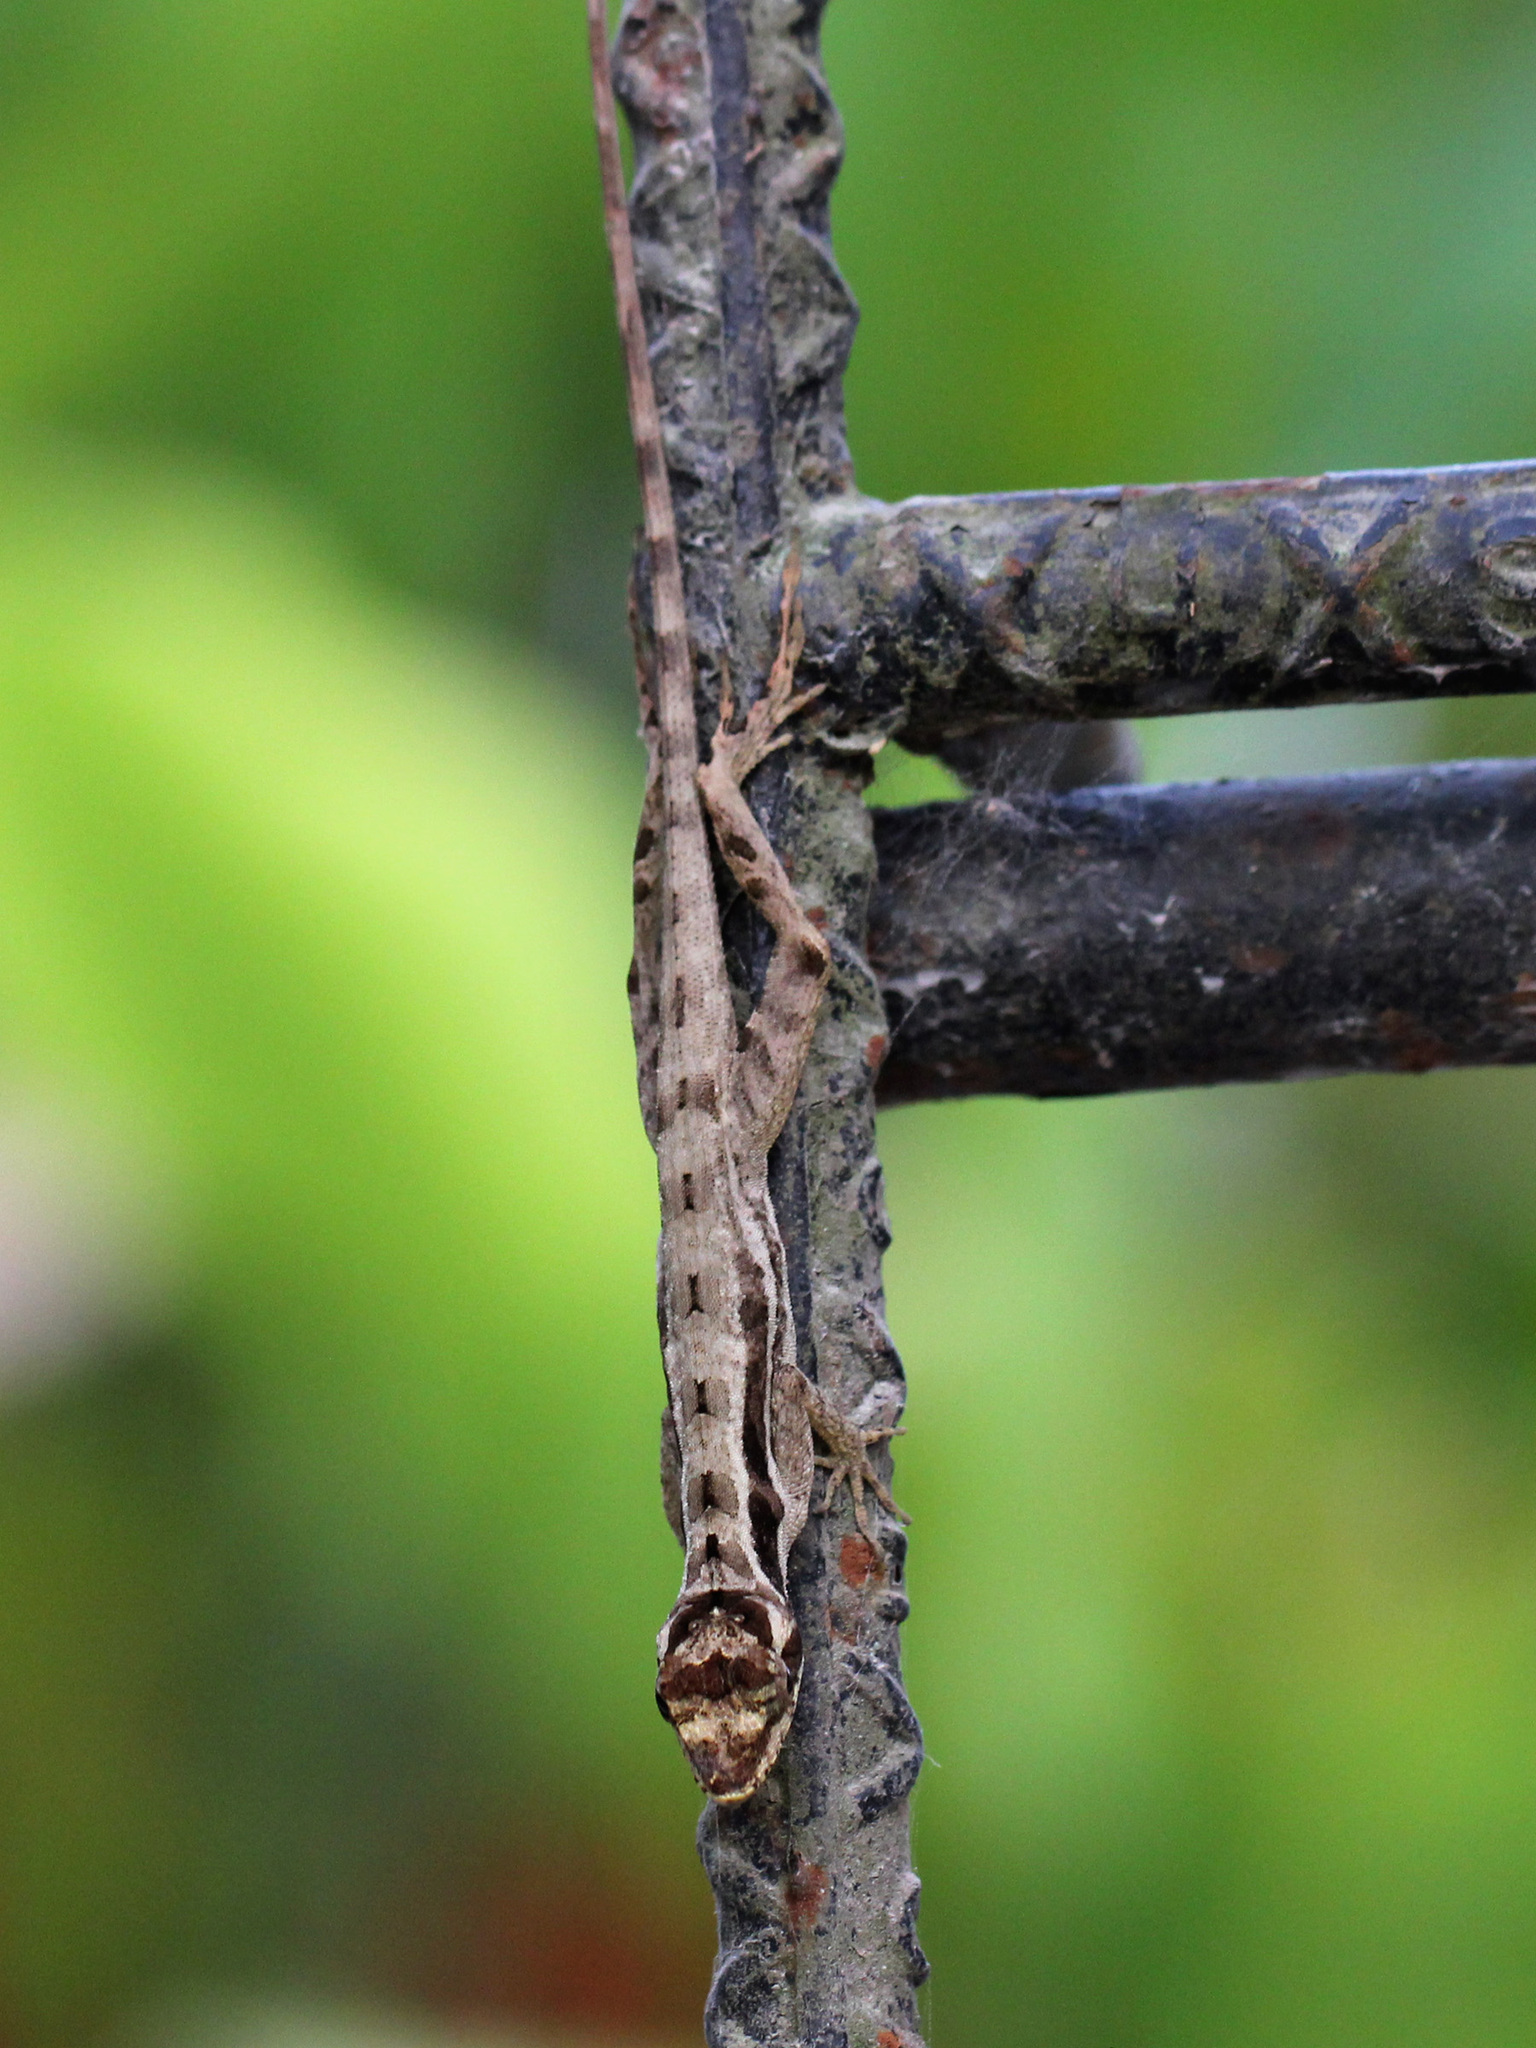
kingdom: Animalia
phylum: Chordata
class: Squamata
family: Dactyloidae
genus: Anolis
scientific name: Anolis lemurinus
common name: Ghost anole
